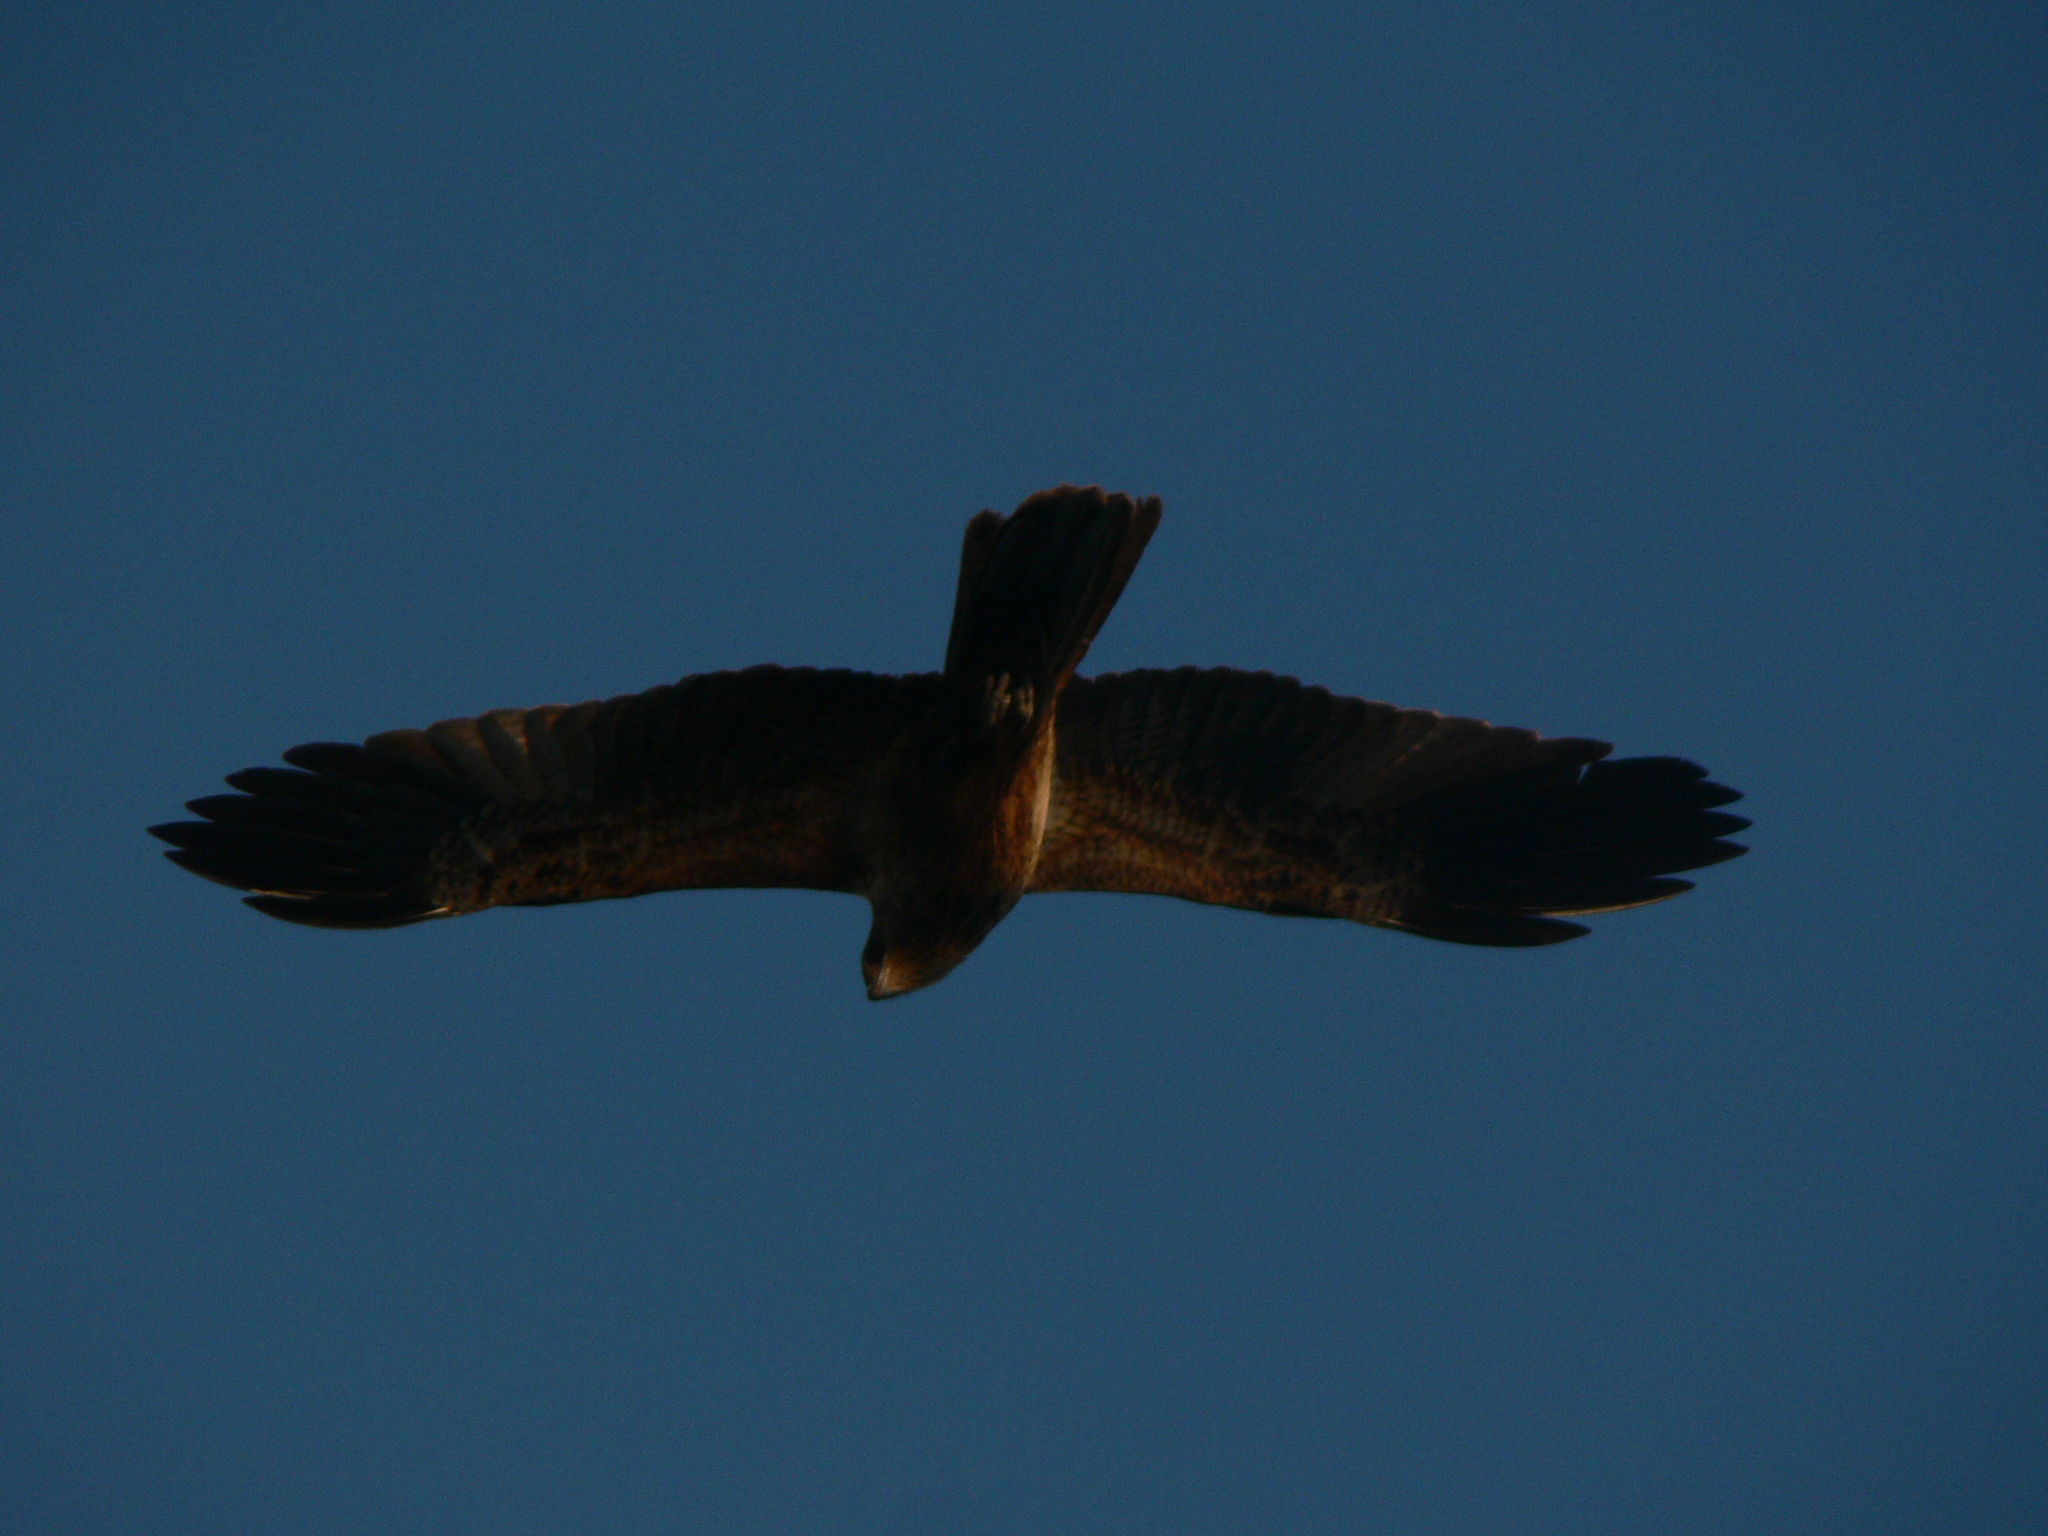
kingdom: Animalia
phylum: Chordata
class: Aves
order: Accipitriformes
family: Accipitridae
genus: Haliastur
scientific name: Haliastur sphenurus
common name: Whistling kite
